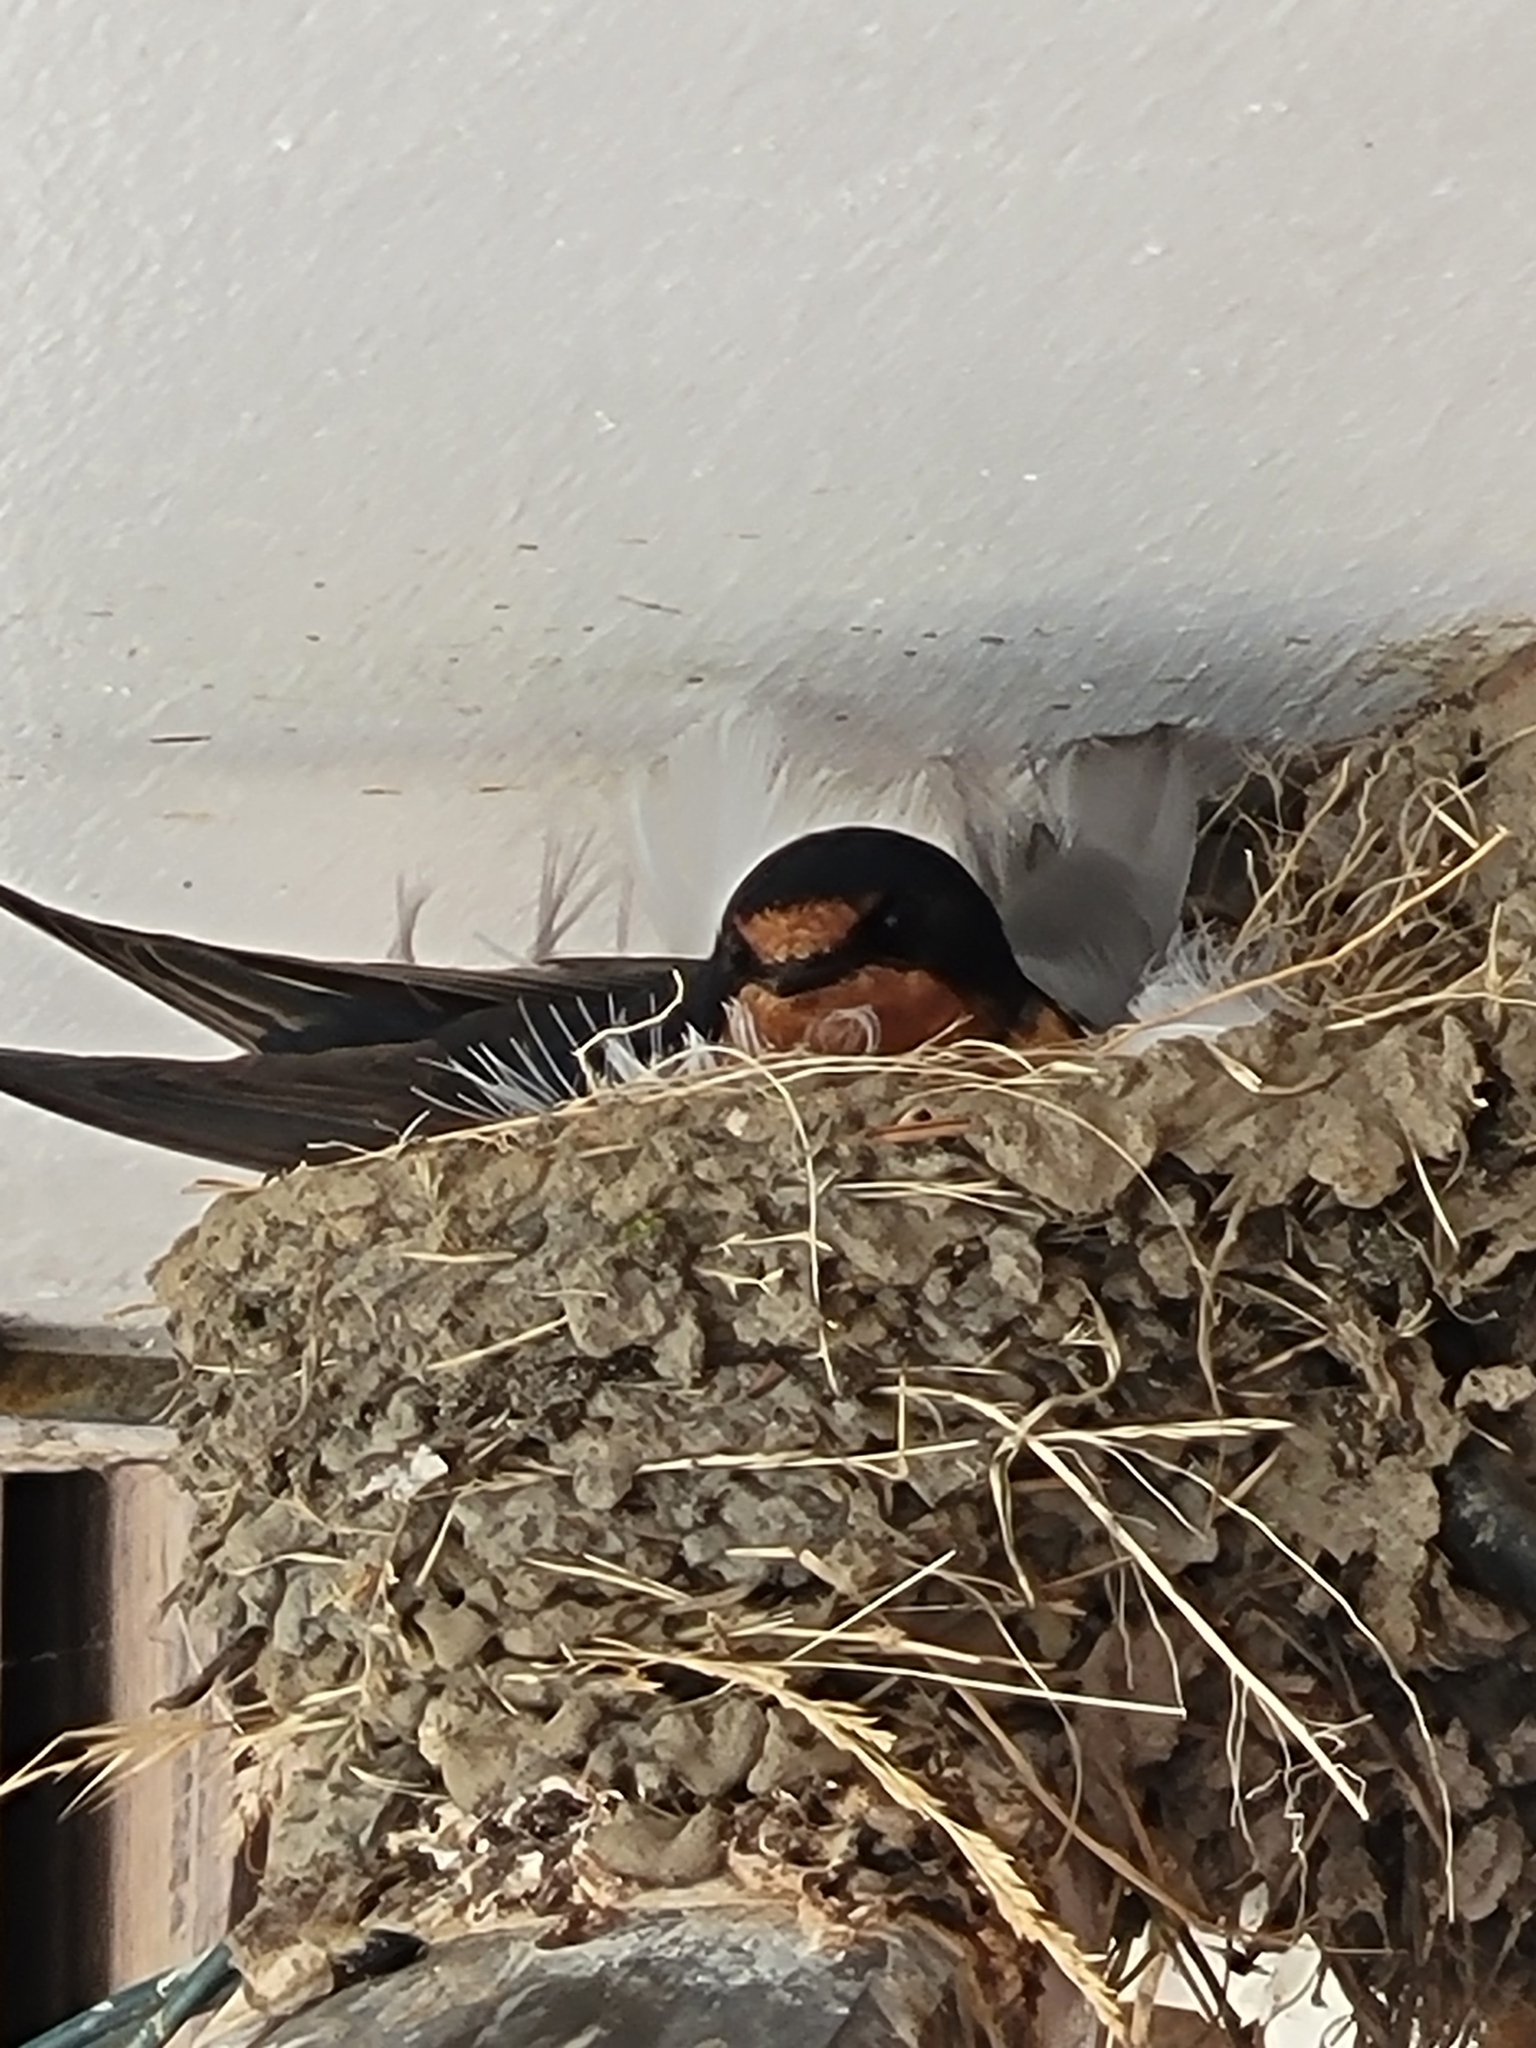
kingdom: Animalia
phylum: Chordata
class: Aves
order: Passeriformes
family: Hirundinidae
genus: Hirundo
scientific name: Hirundo rustica
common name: Barn swallow
